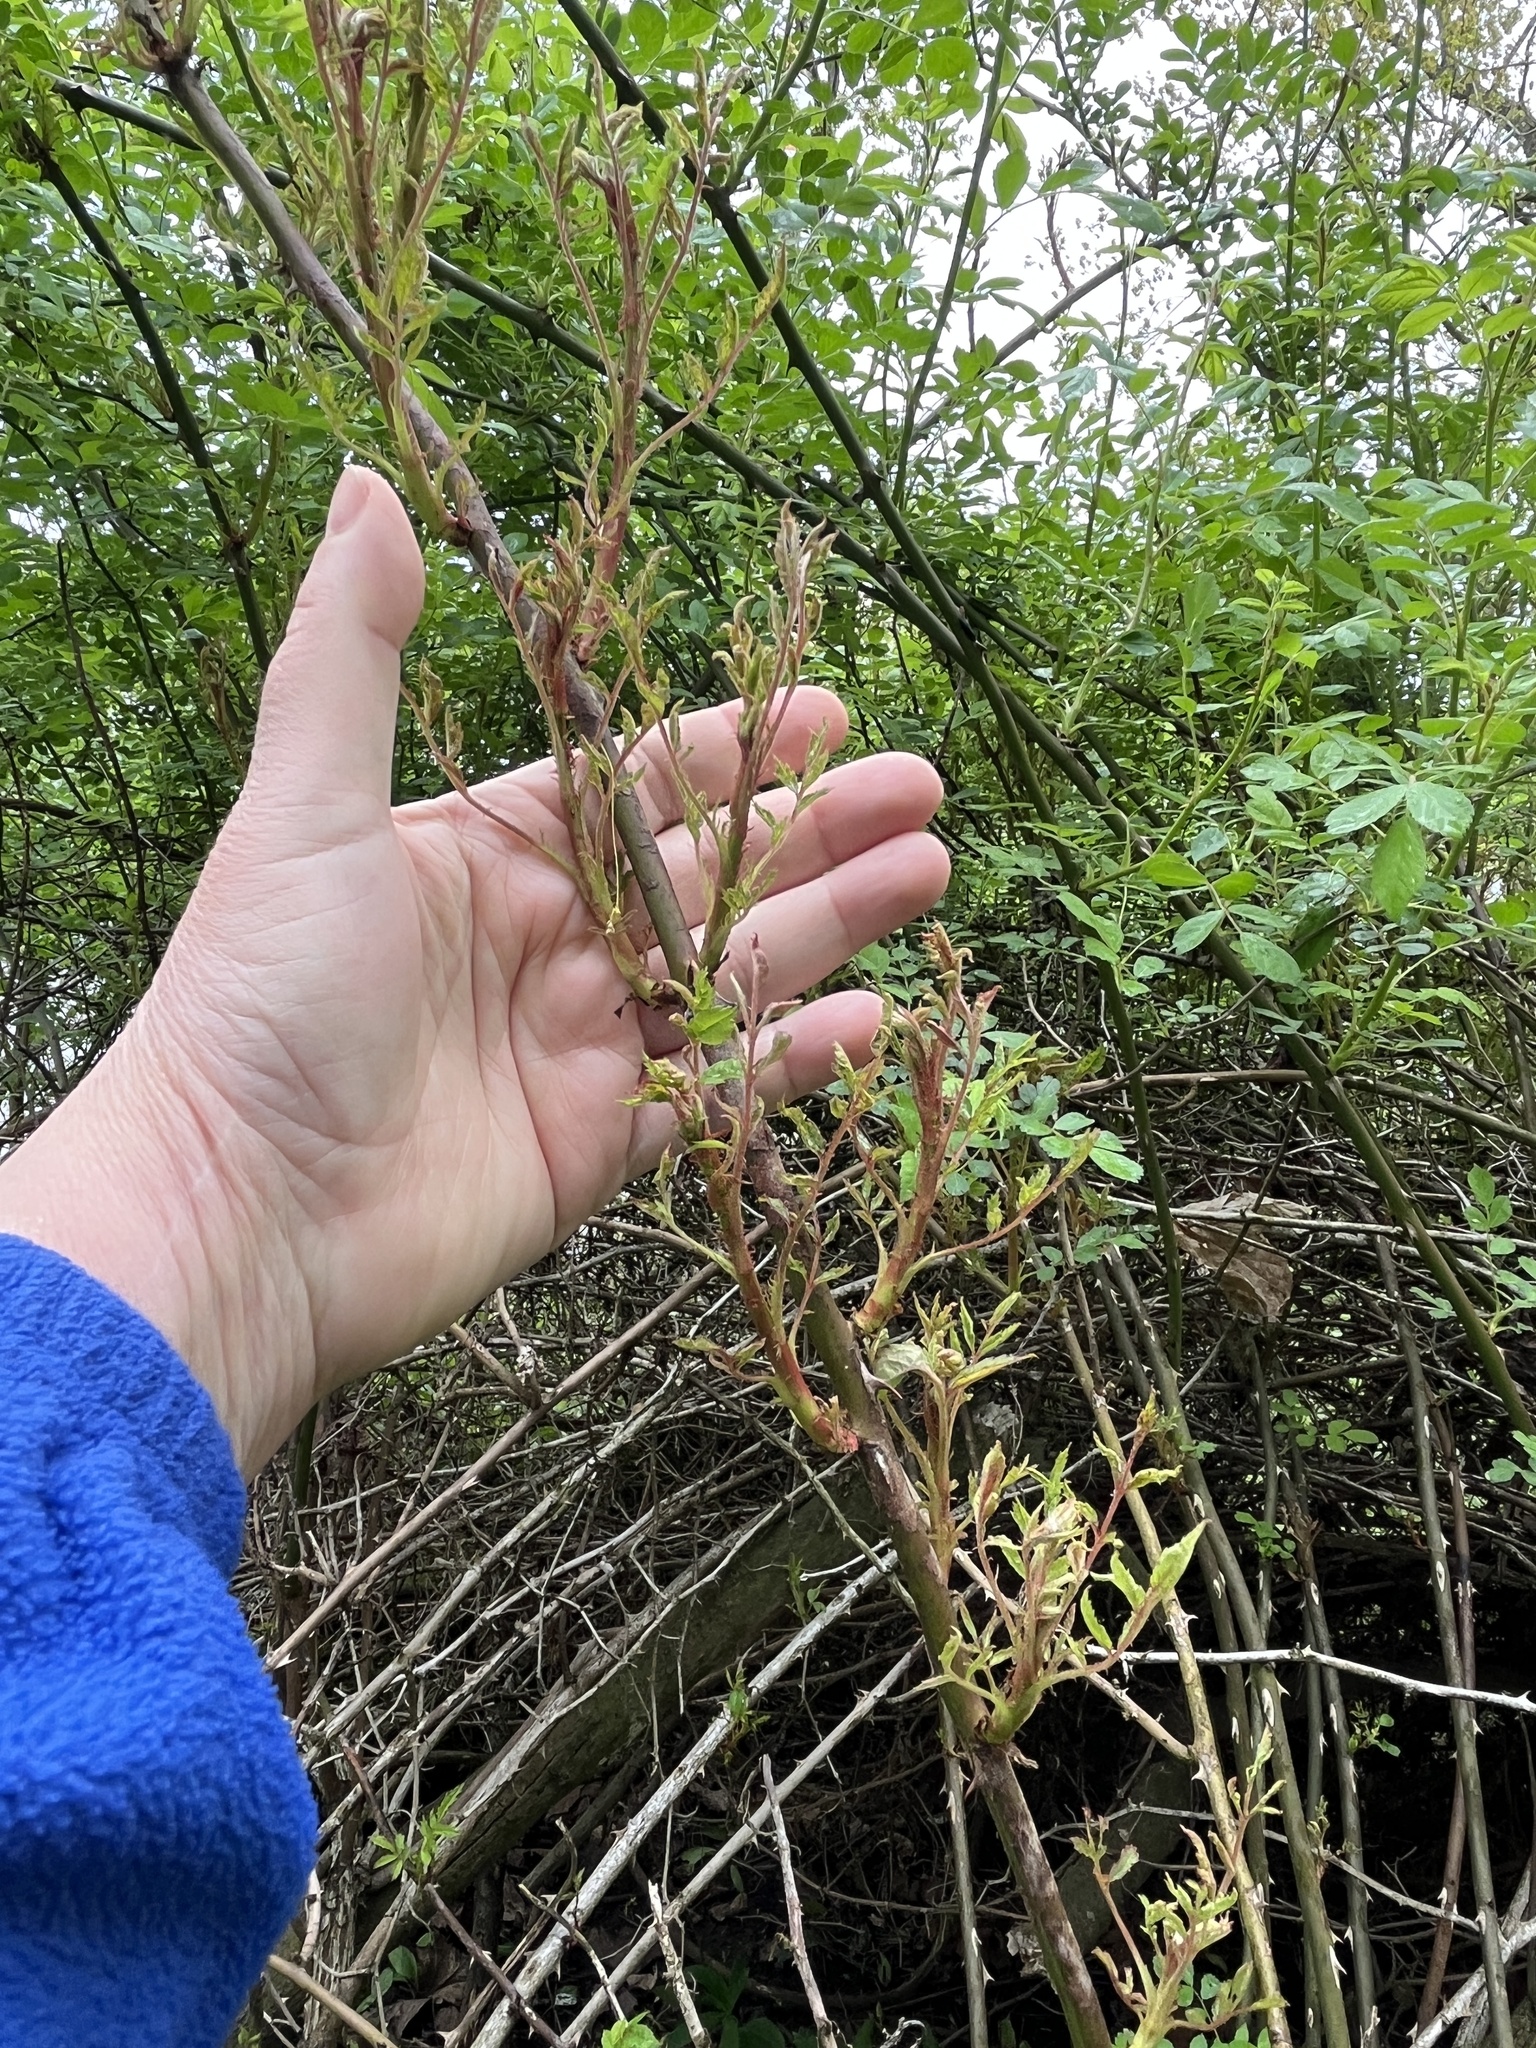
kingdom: Viruses
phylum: Negarnaviricota
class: Ellioviricetes
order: Bunyavirales
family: Fimoviridae
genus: Emaravirus
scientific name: Emaravirus rosae
